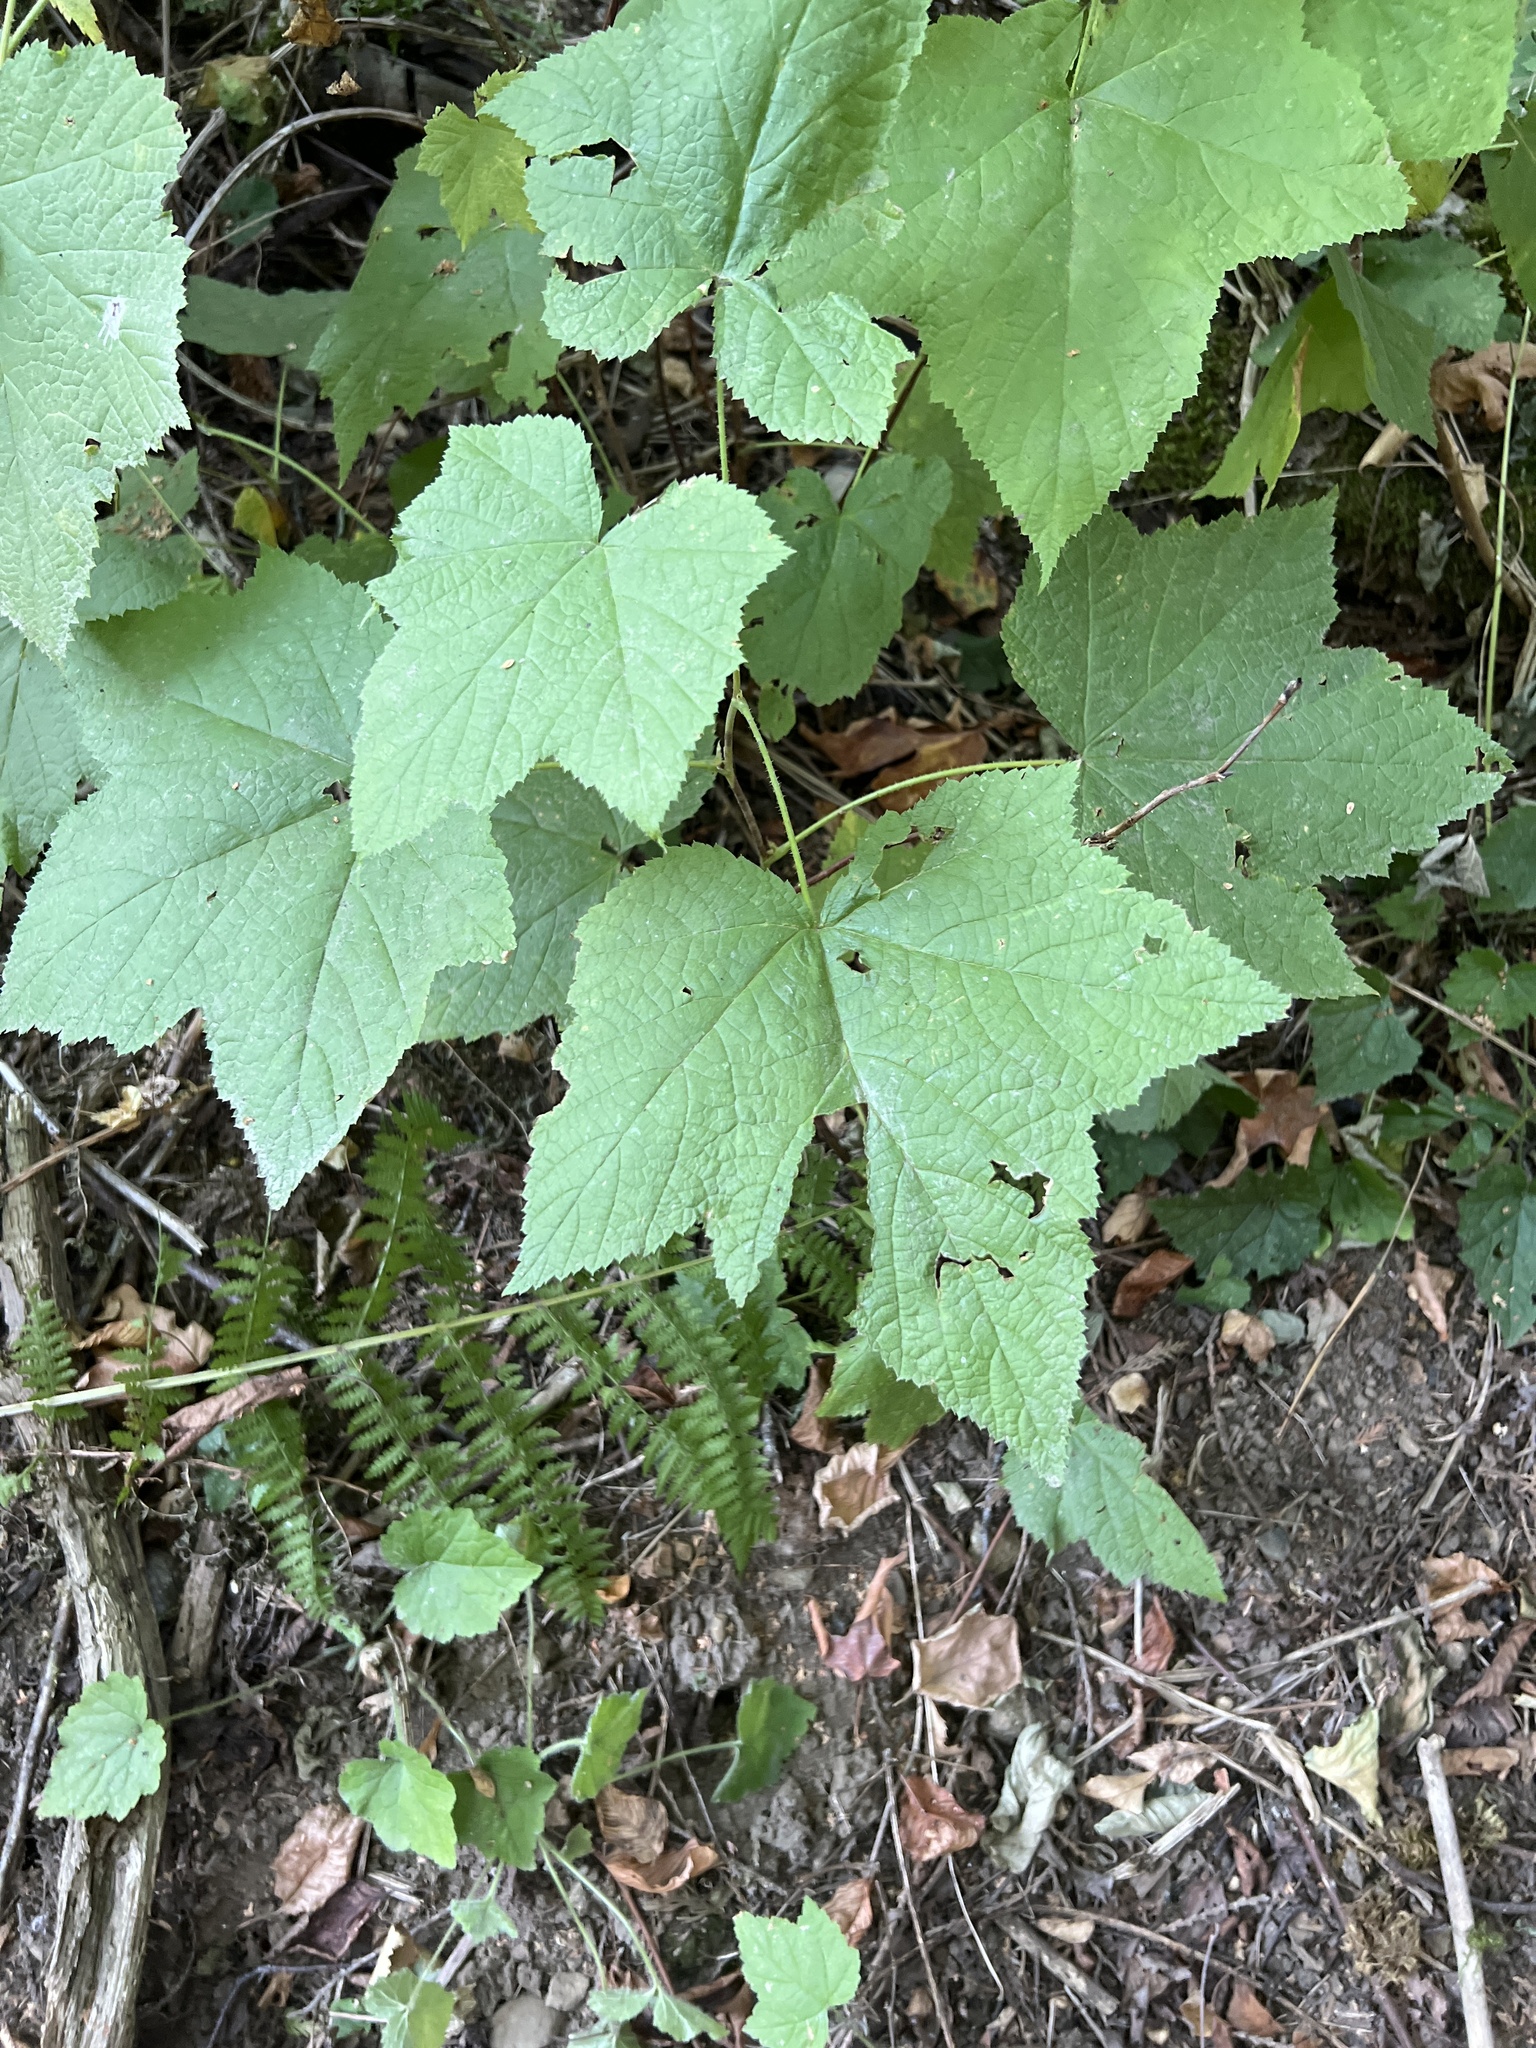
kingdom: Plantae
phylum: Tracheophyta
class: Magnoliopsida
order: Rosales
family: Rosaceae
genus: Rubus
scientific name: Rubus parviflorus
